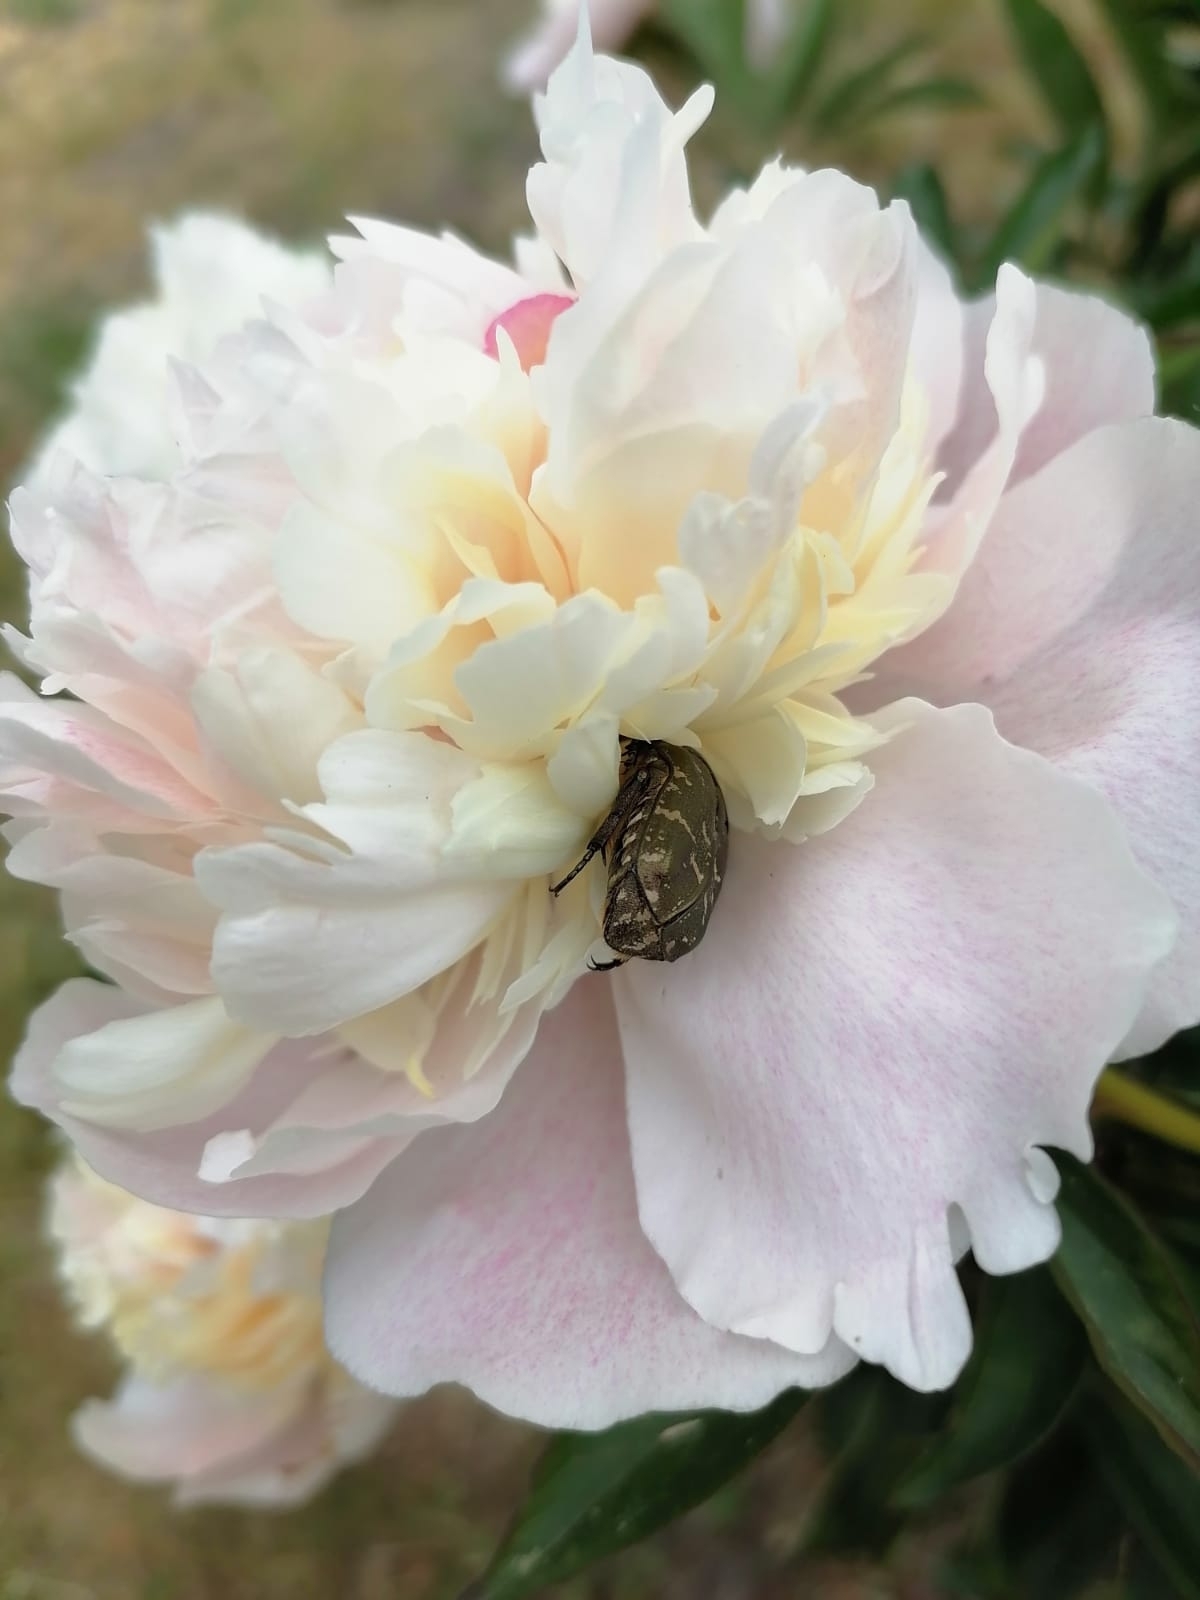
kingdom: Animalia
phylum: Arthropoda
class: Insecta
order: Coleoptera
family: Scarabaeidae
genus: Oxythyrea
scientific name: Oxythyrea funesta
